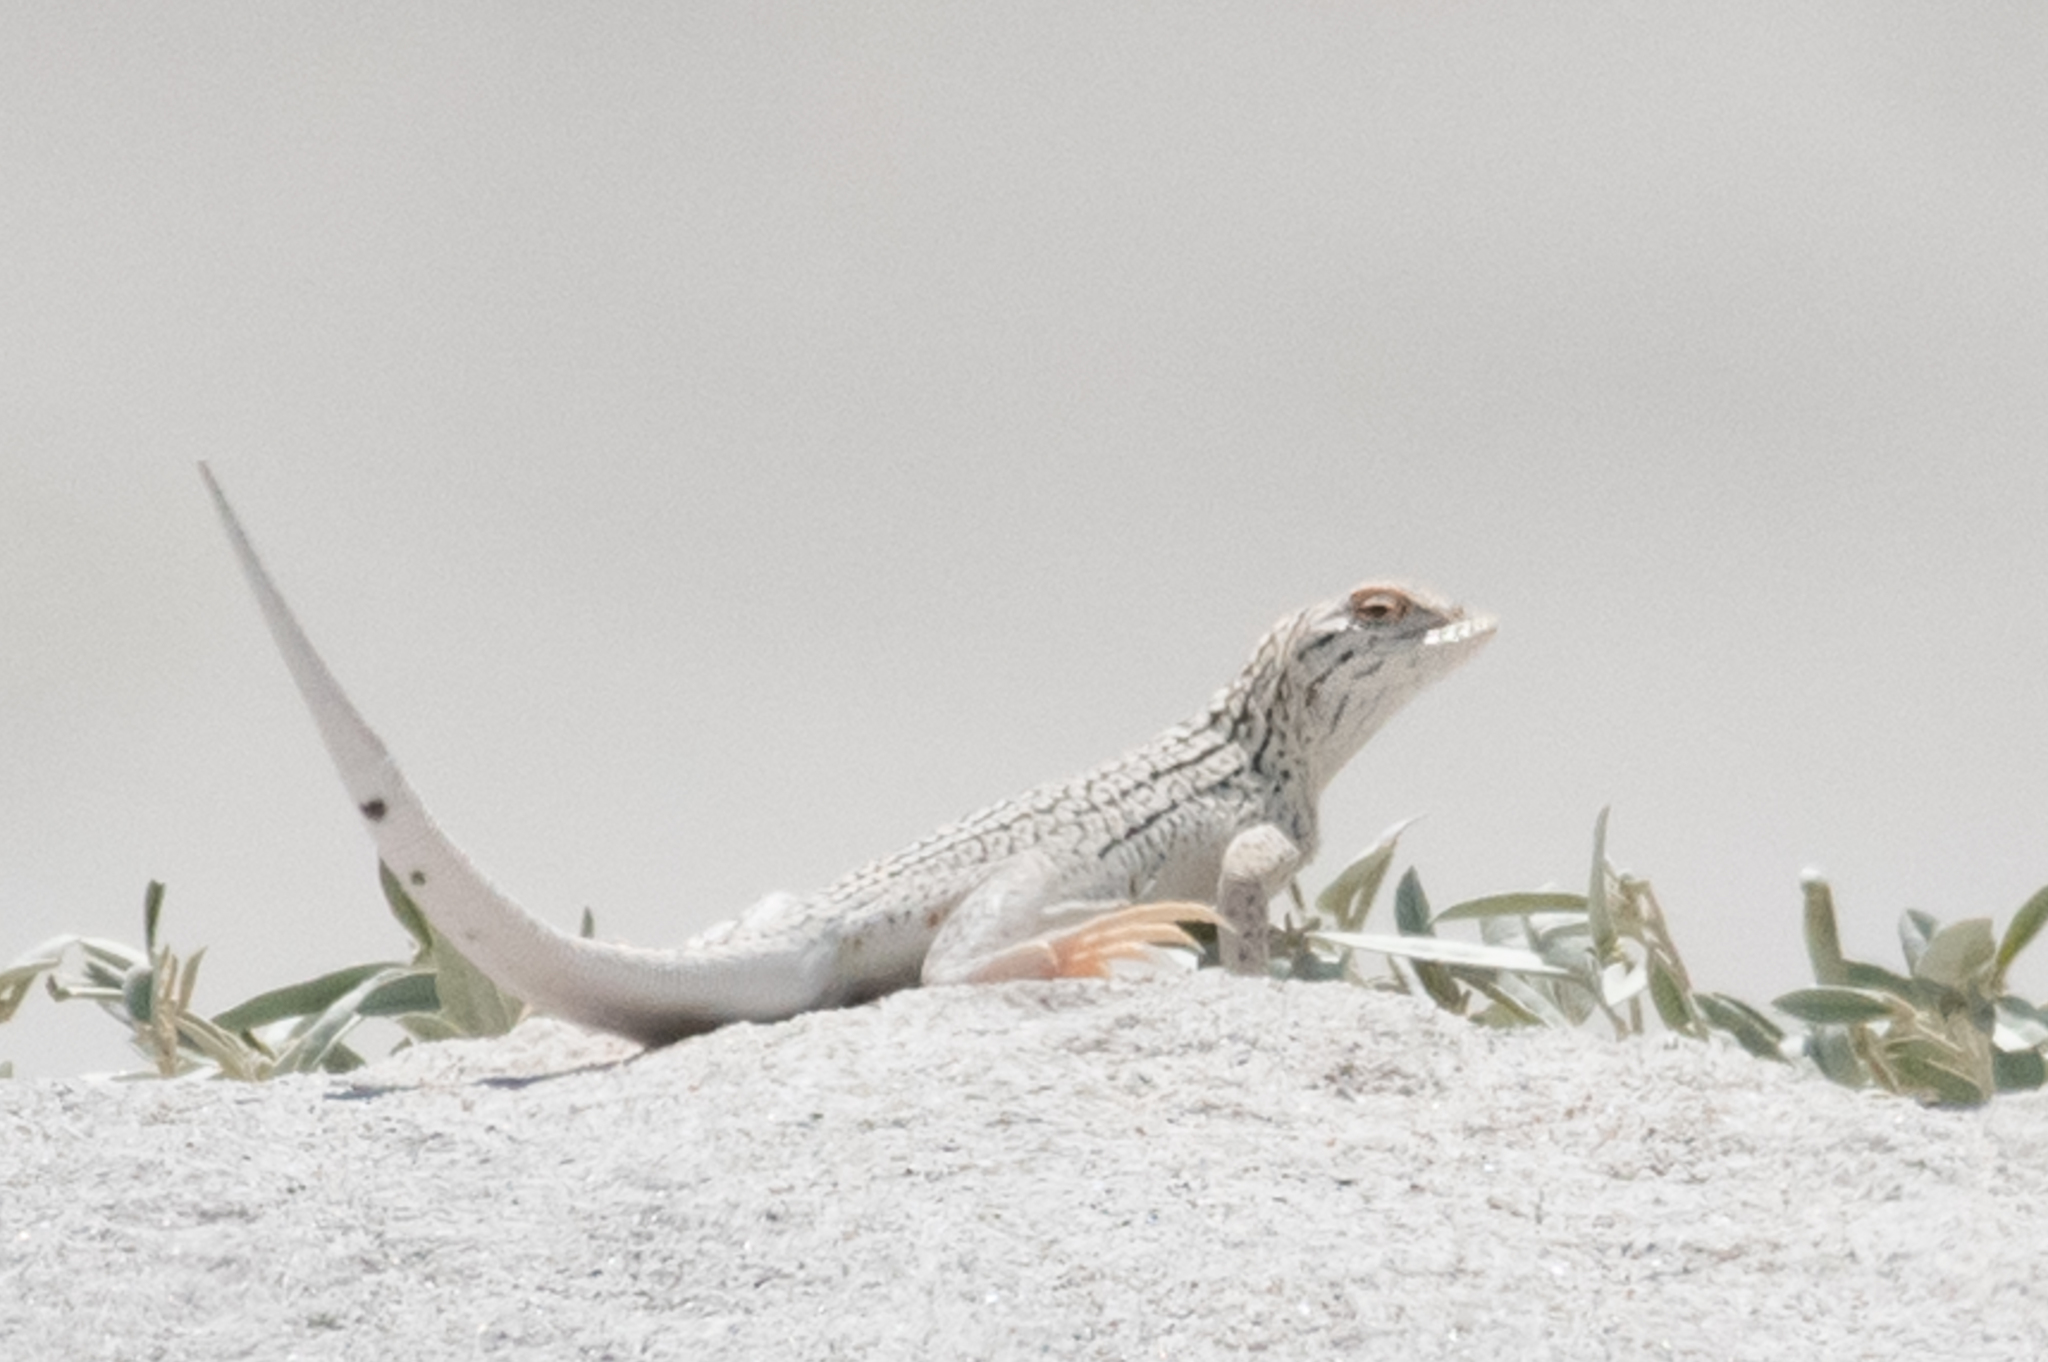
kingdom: Animalia
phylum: Chordata
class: Squamata
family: Phrynosomatidae
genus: Uma
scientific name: Uma inornata
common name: Coachella valley fringe-toed lizard
